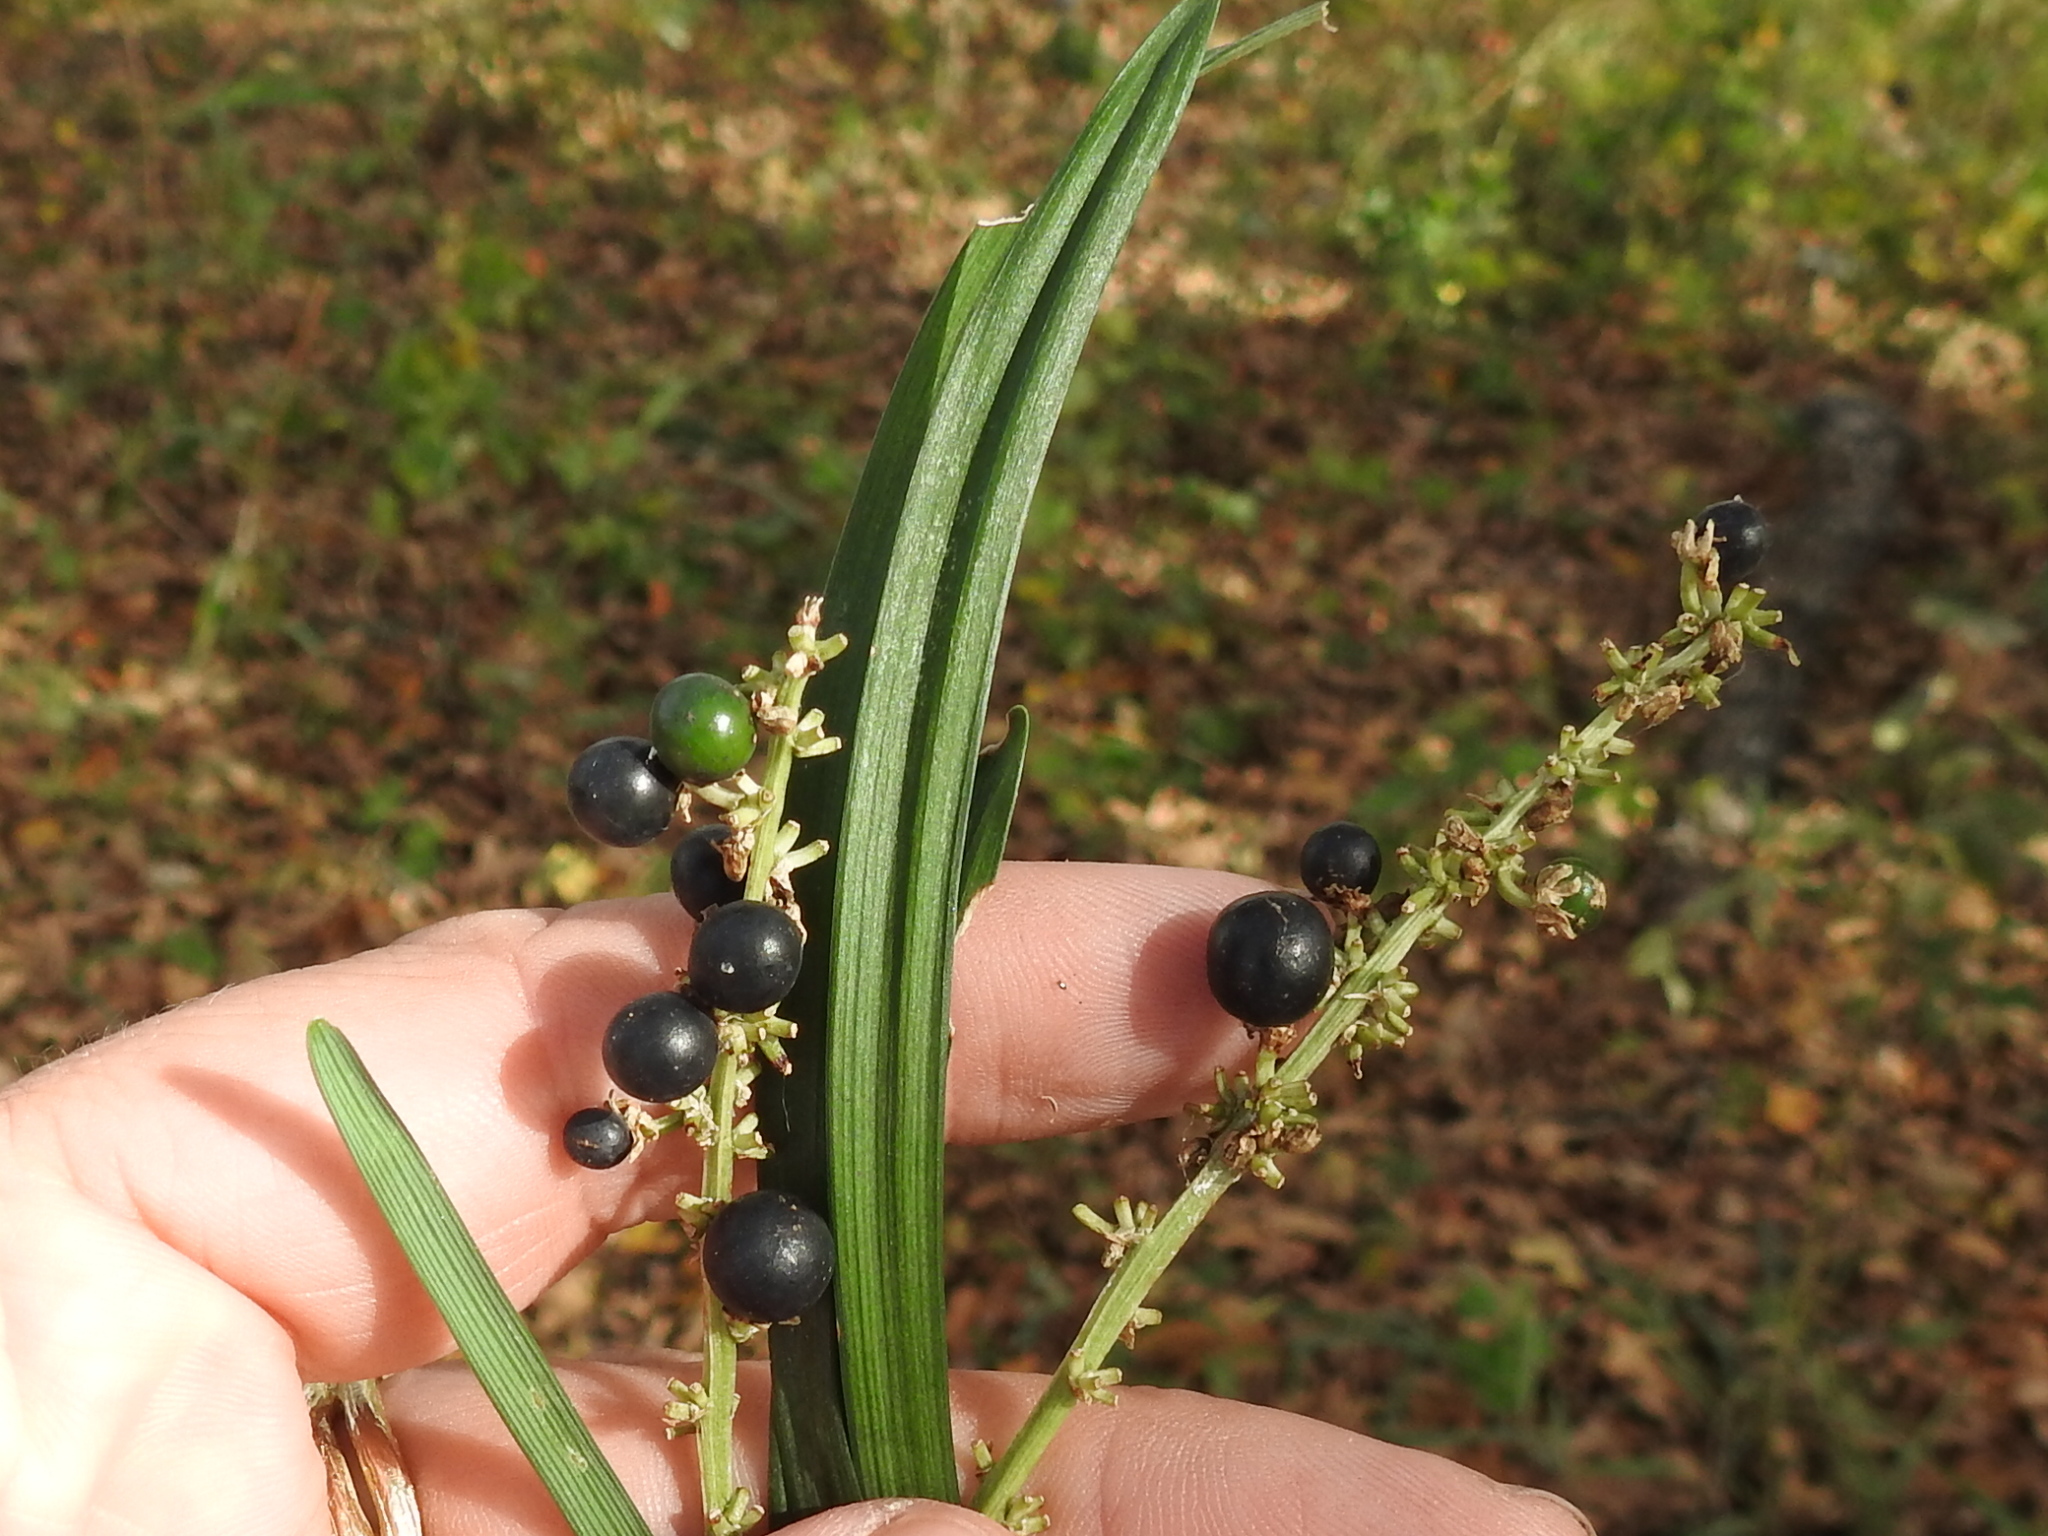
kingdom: Plantae
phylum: Tracheophyta
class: Liliopsida
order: Asparagales
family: Asparagaceae
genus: Liriope
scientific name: Liriope muscari
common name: Big blue lilyturf
